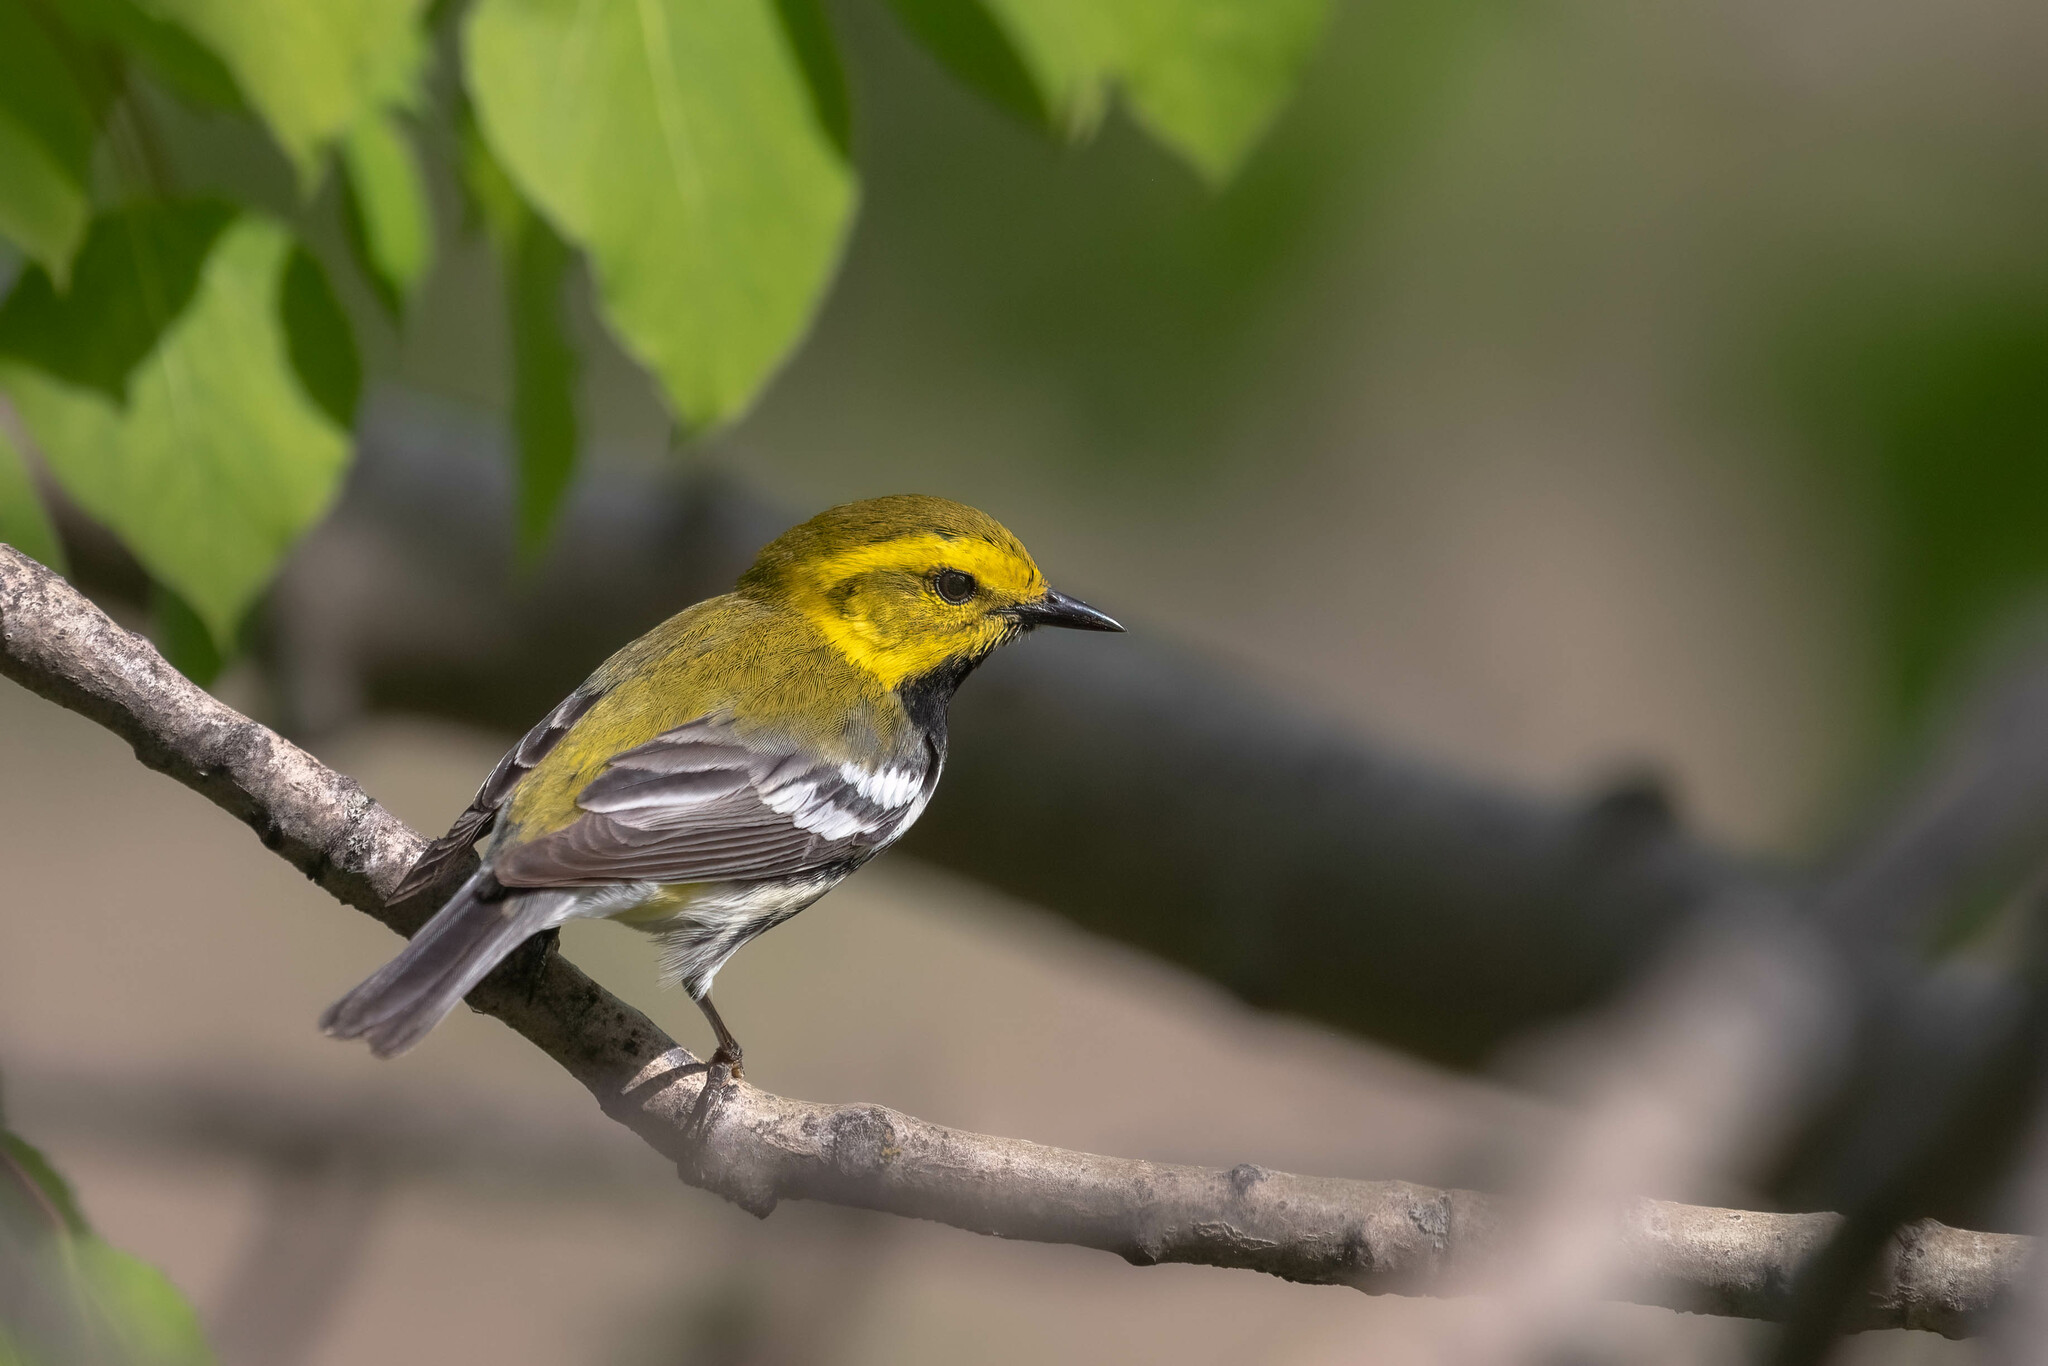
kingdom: Animalia
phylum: Chordata
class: Aves
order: Passeriformes
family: Parulidae
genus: Setophaga
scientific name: Setophaga virens
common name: Black-throated green warbler
